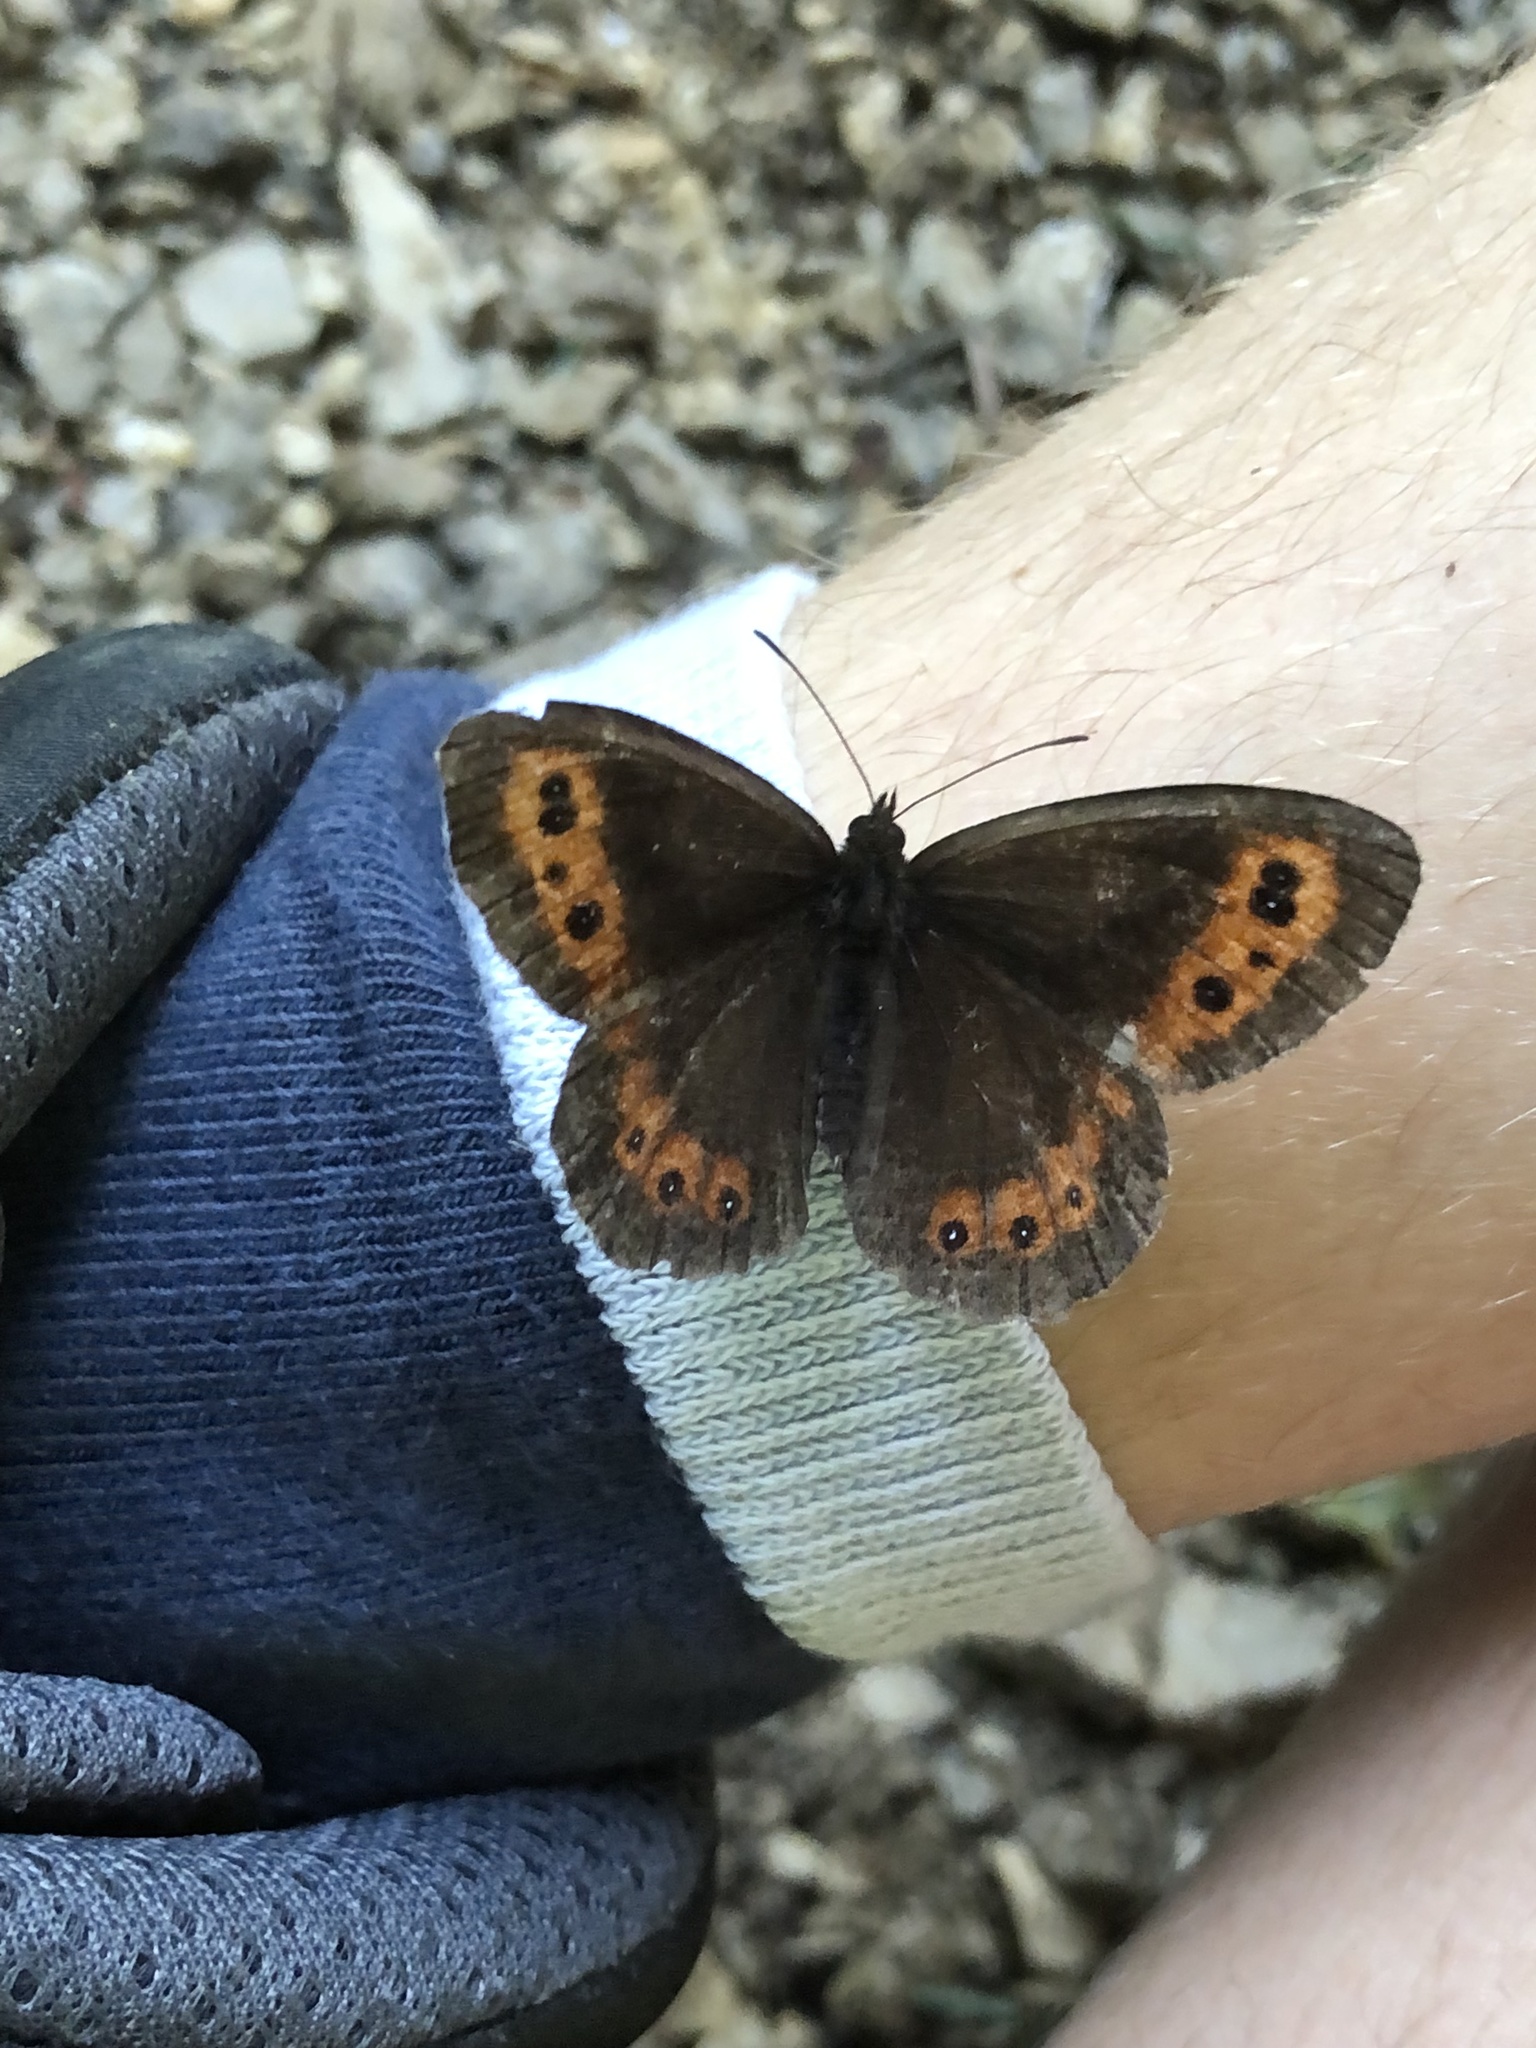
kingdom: Animalia
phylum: Arthropoda
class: Insecta
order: Lepidoptera
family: Nymphalidae
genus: Erebia
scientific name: Erebia ligea
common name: Arran brown
